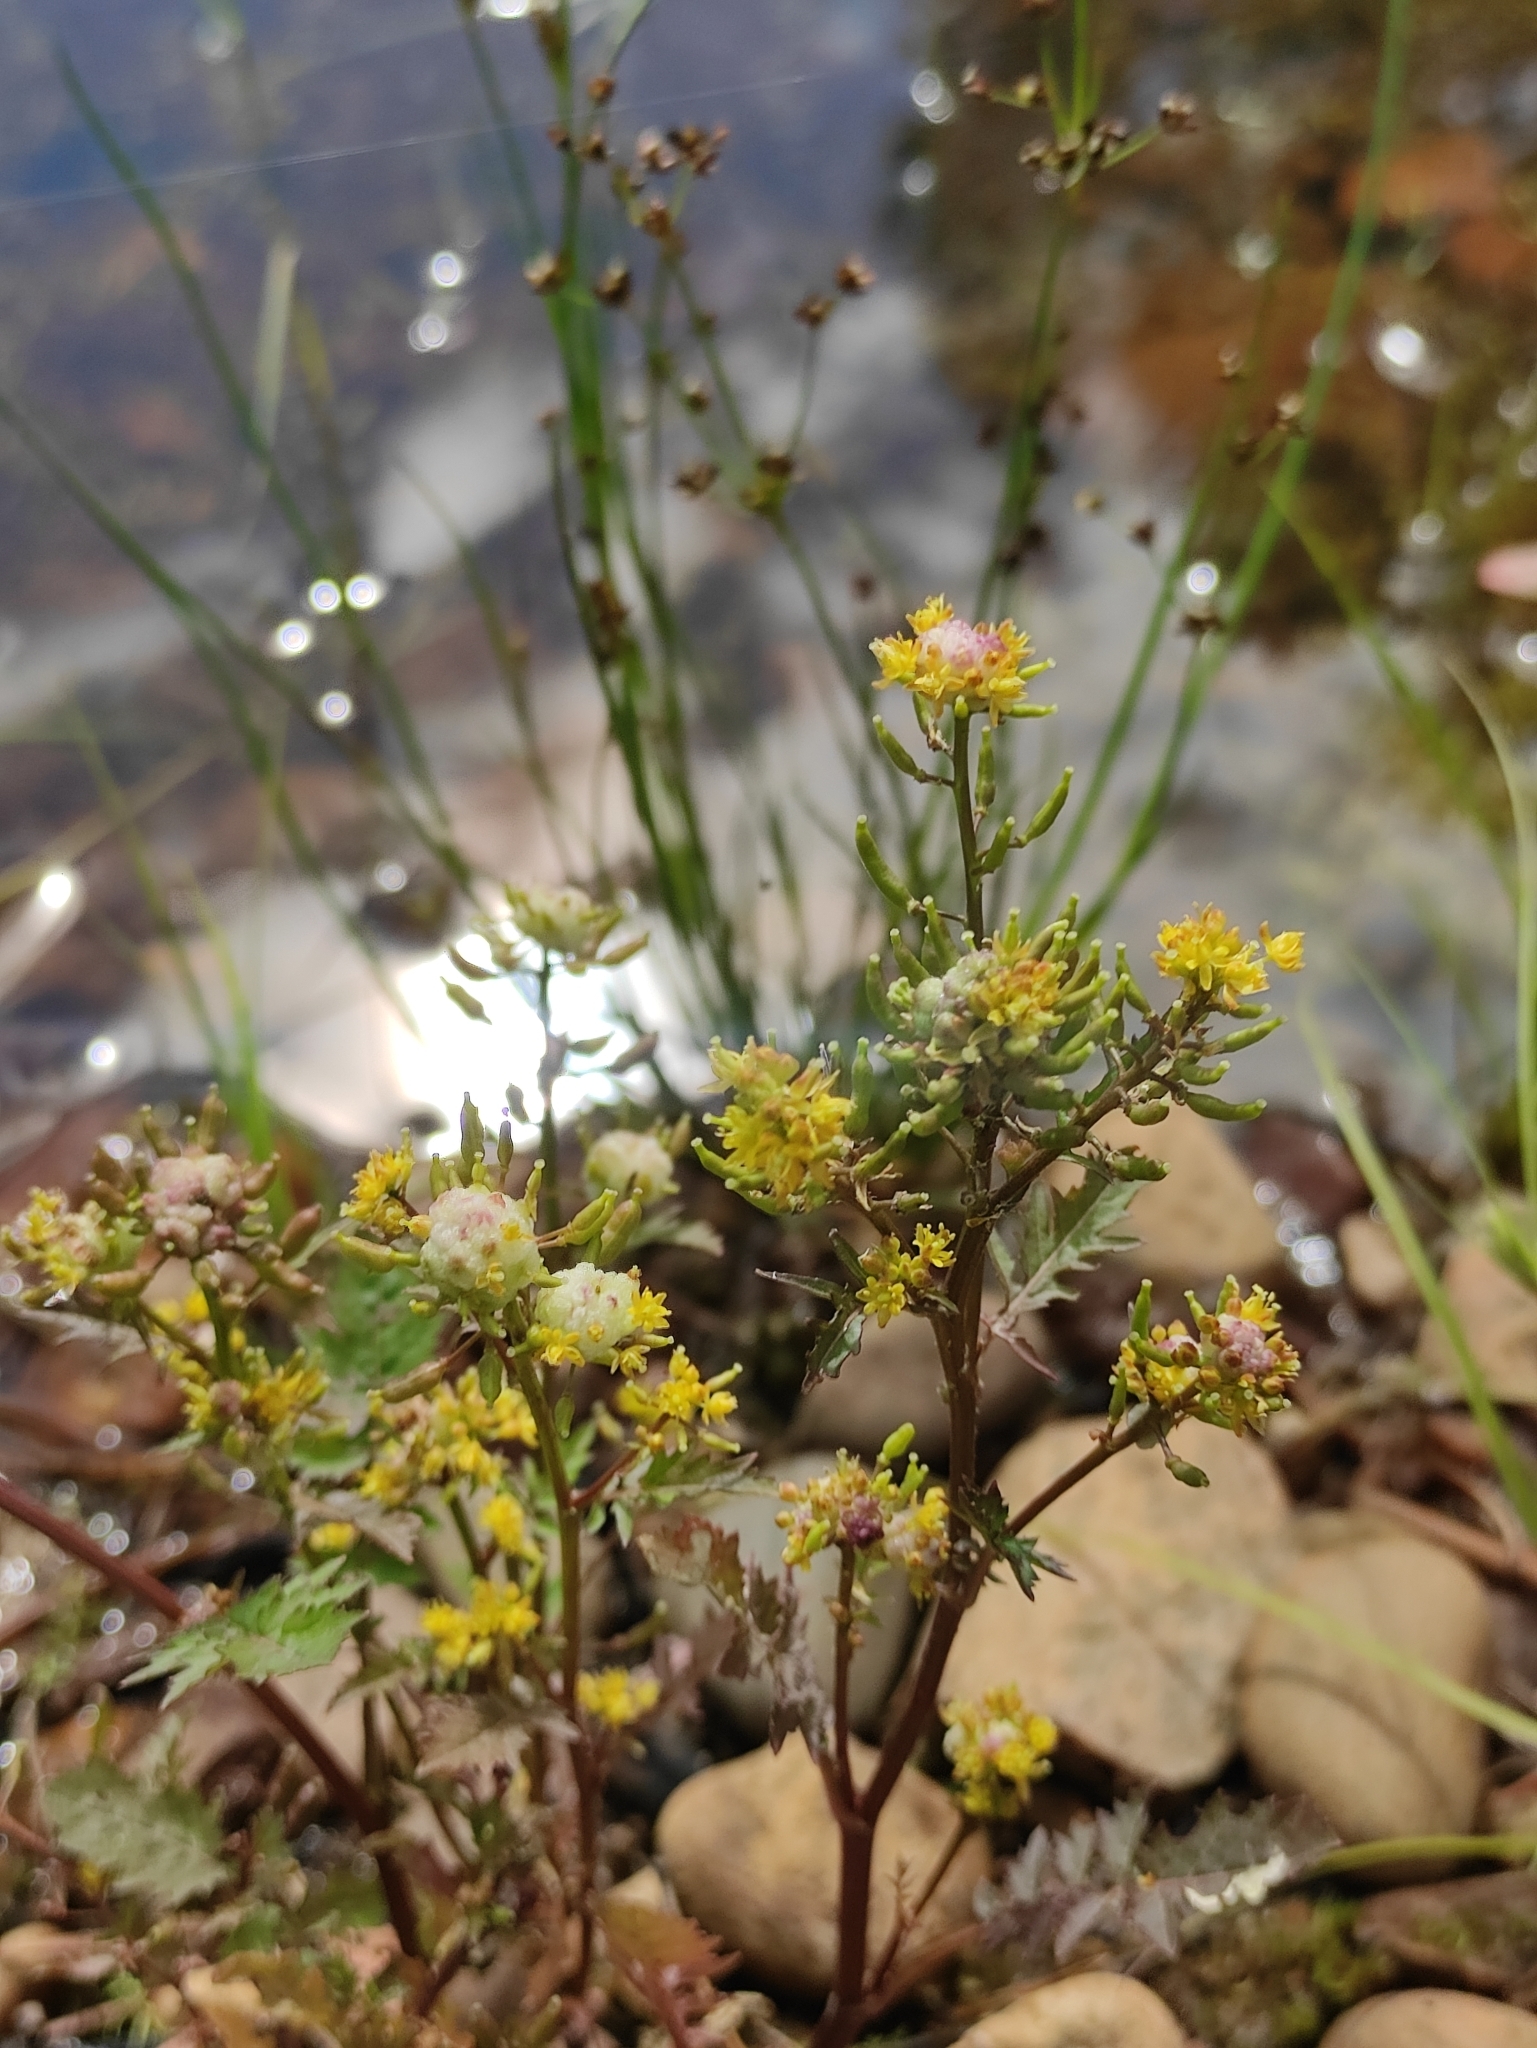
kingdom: Plantae
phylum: Tracheophyta
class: Magnoliopsida
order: Brassicales
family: Brassicaceae
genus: Rorippa
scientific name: Rorippa palustris
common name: Marsh yellow-cress
